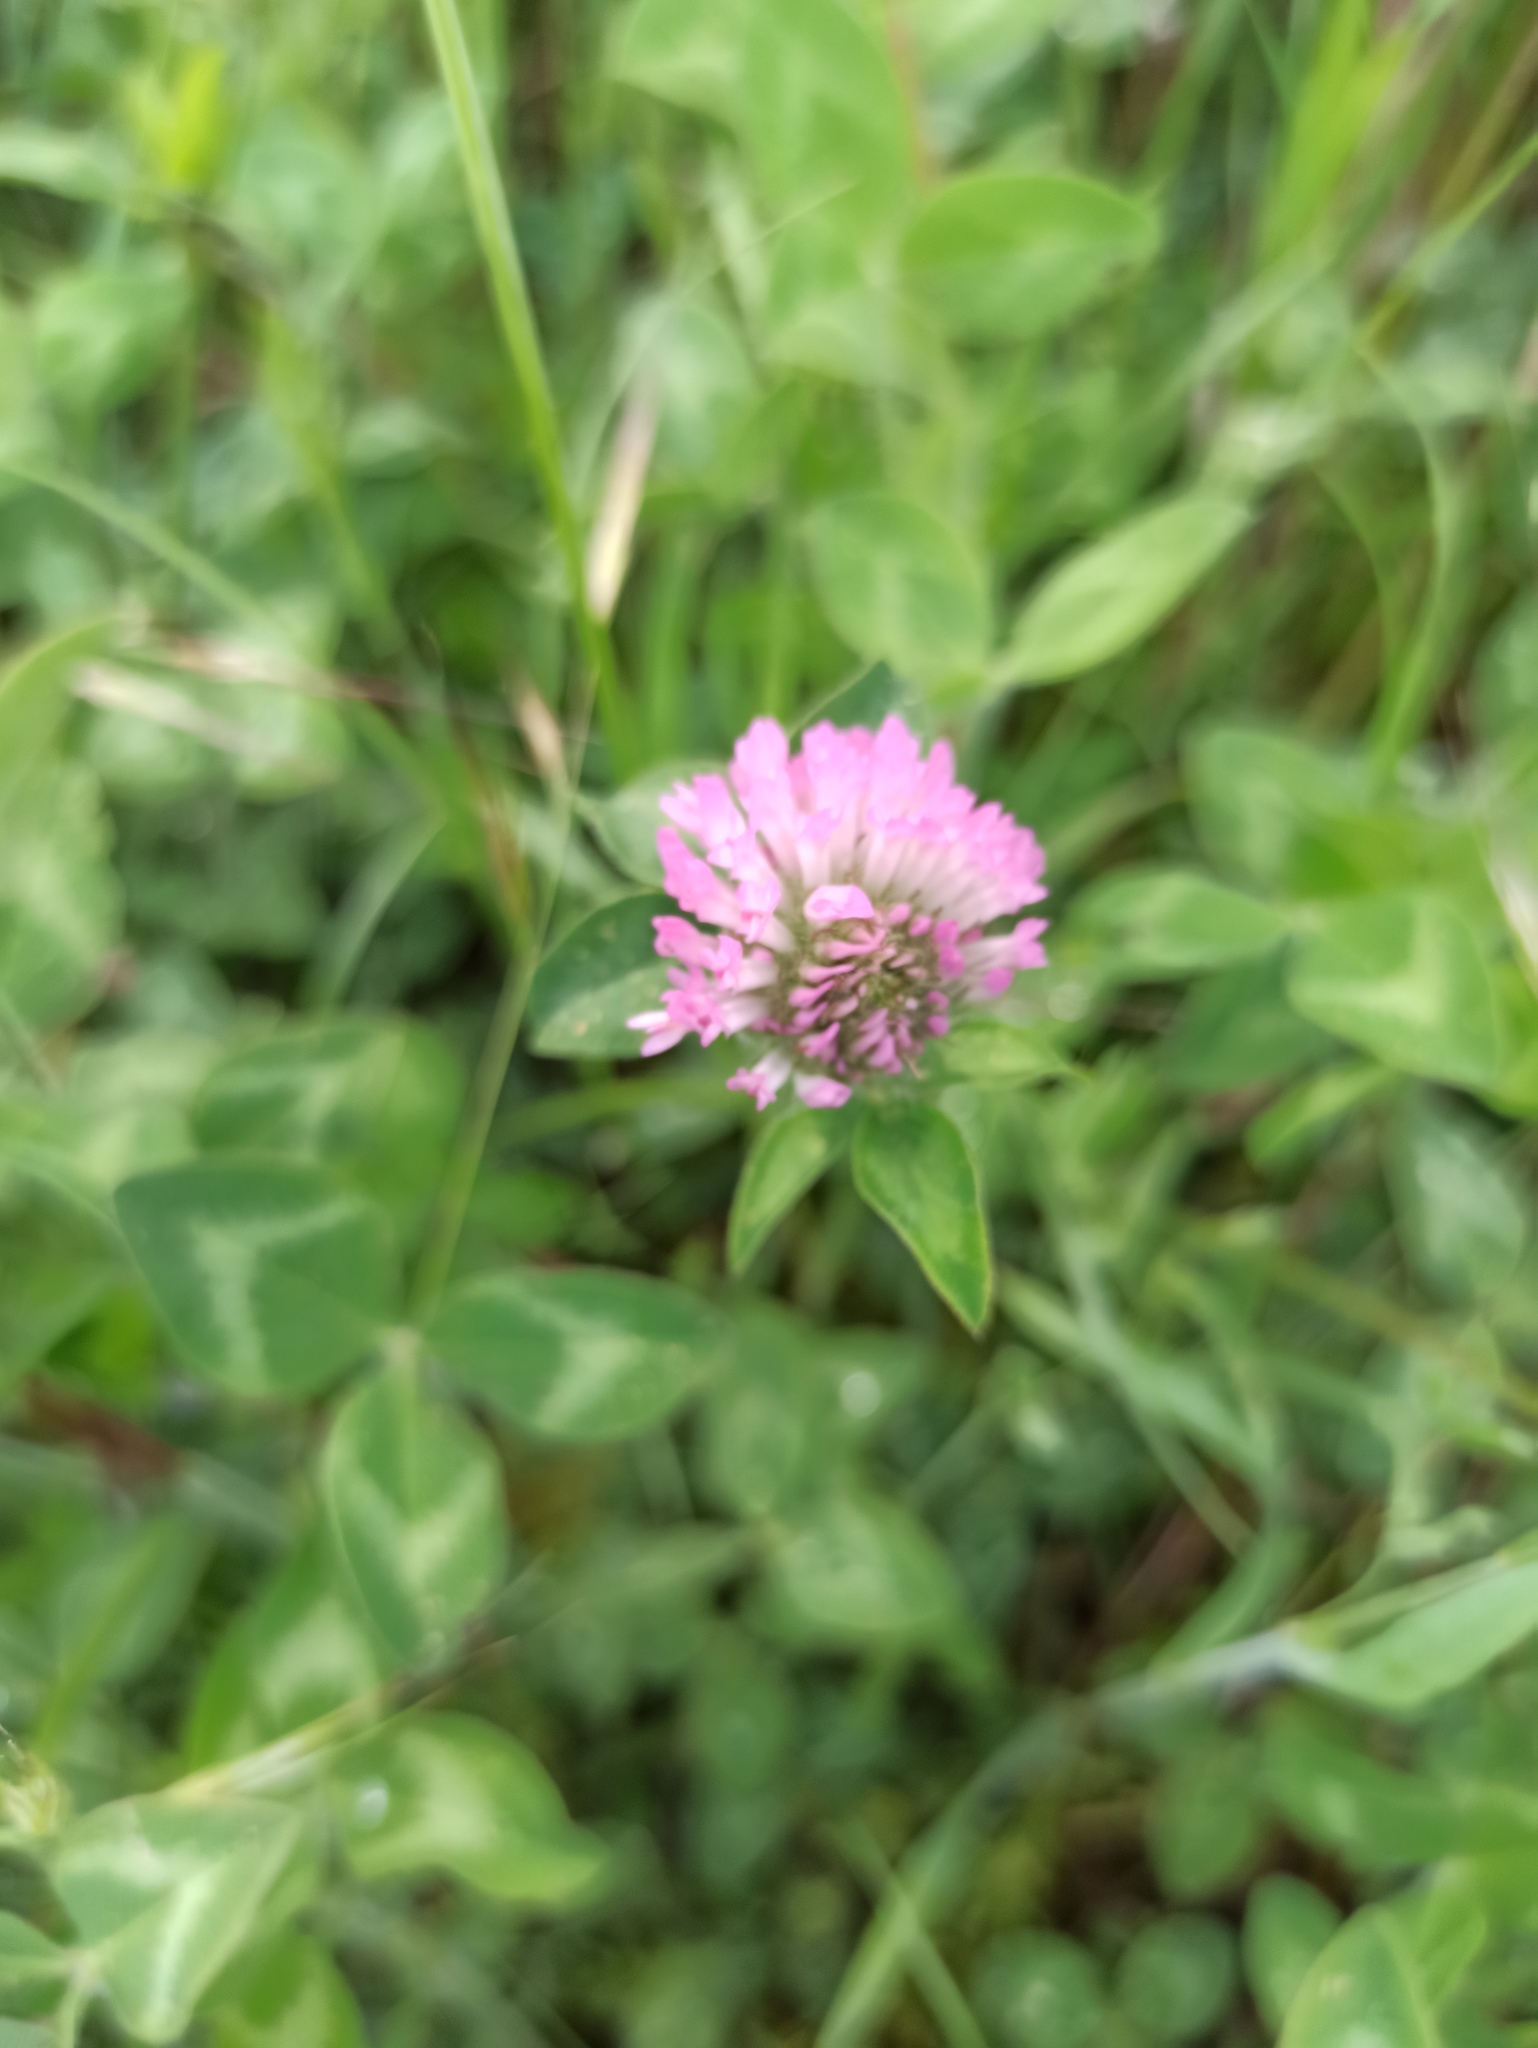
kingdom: Plantae
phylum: Tracheophyta
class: Magnoliopsida
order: Fabales
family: Fabaceae
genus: Trifolium
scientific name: Trifolium pratense
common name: Red clover
